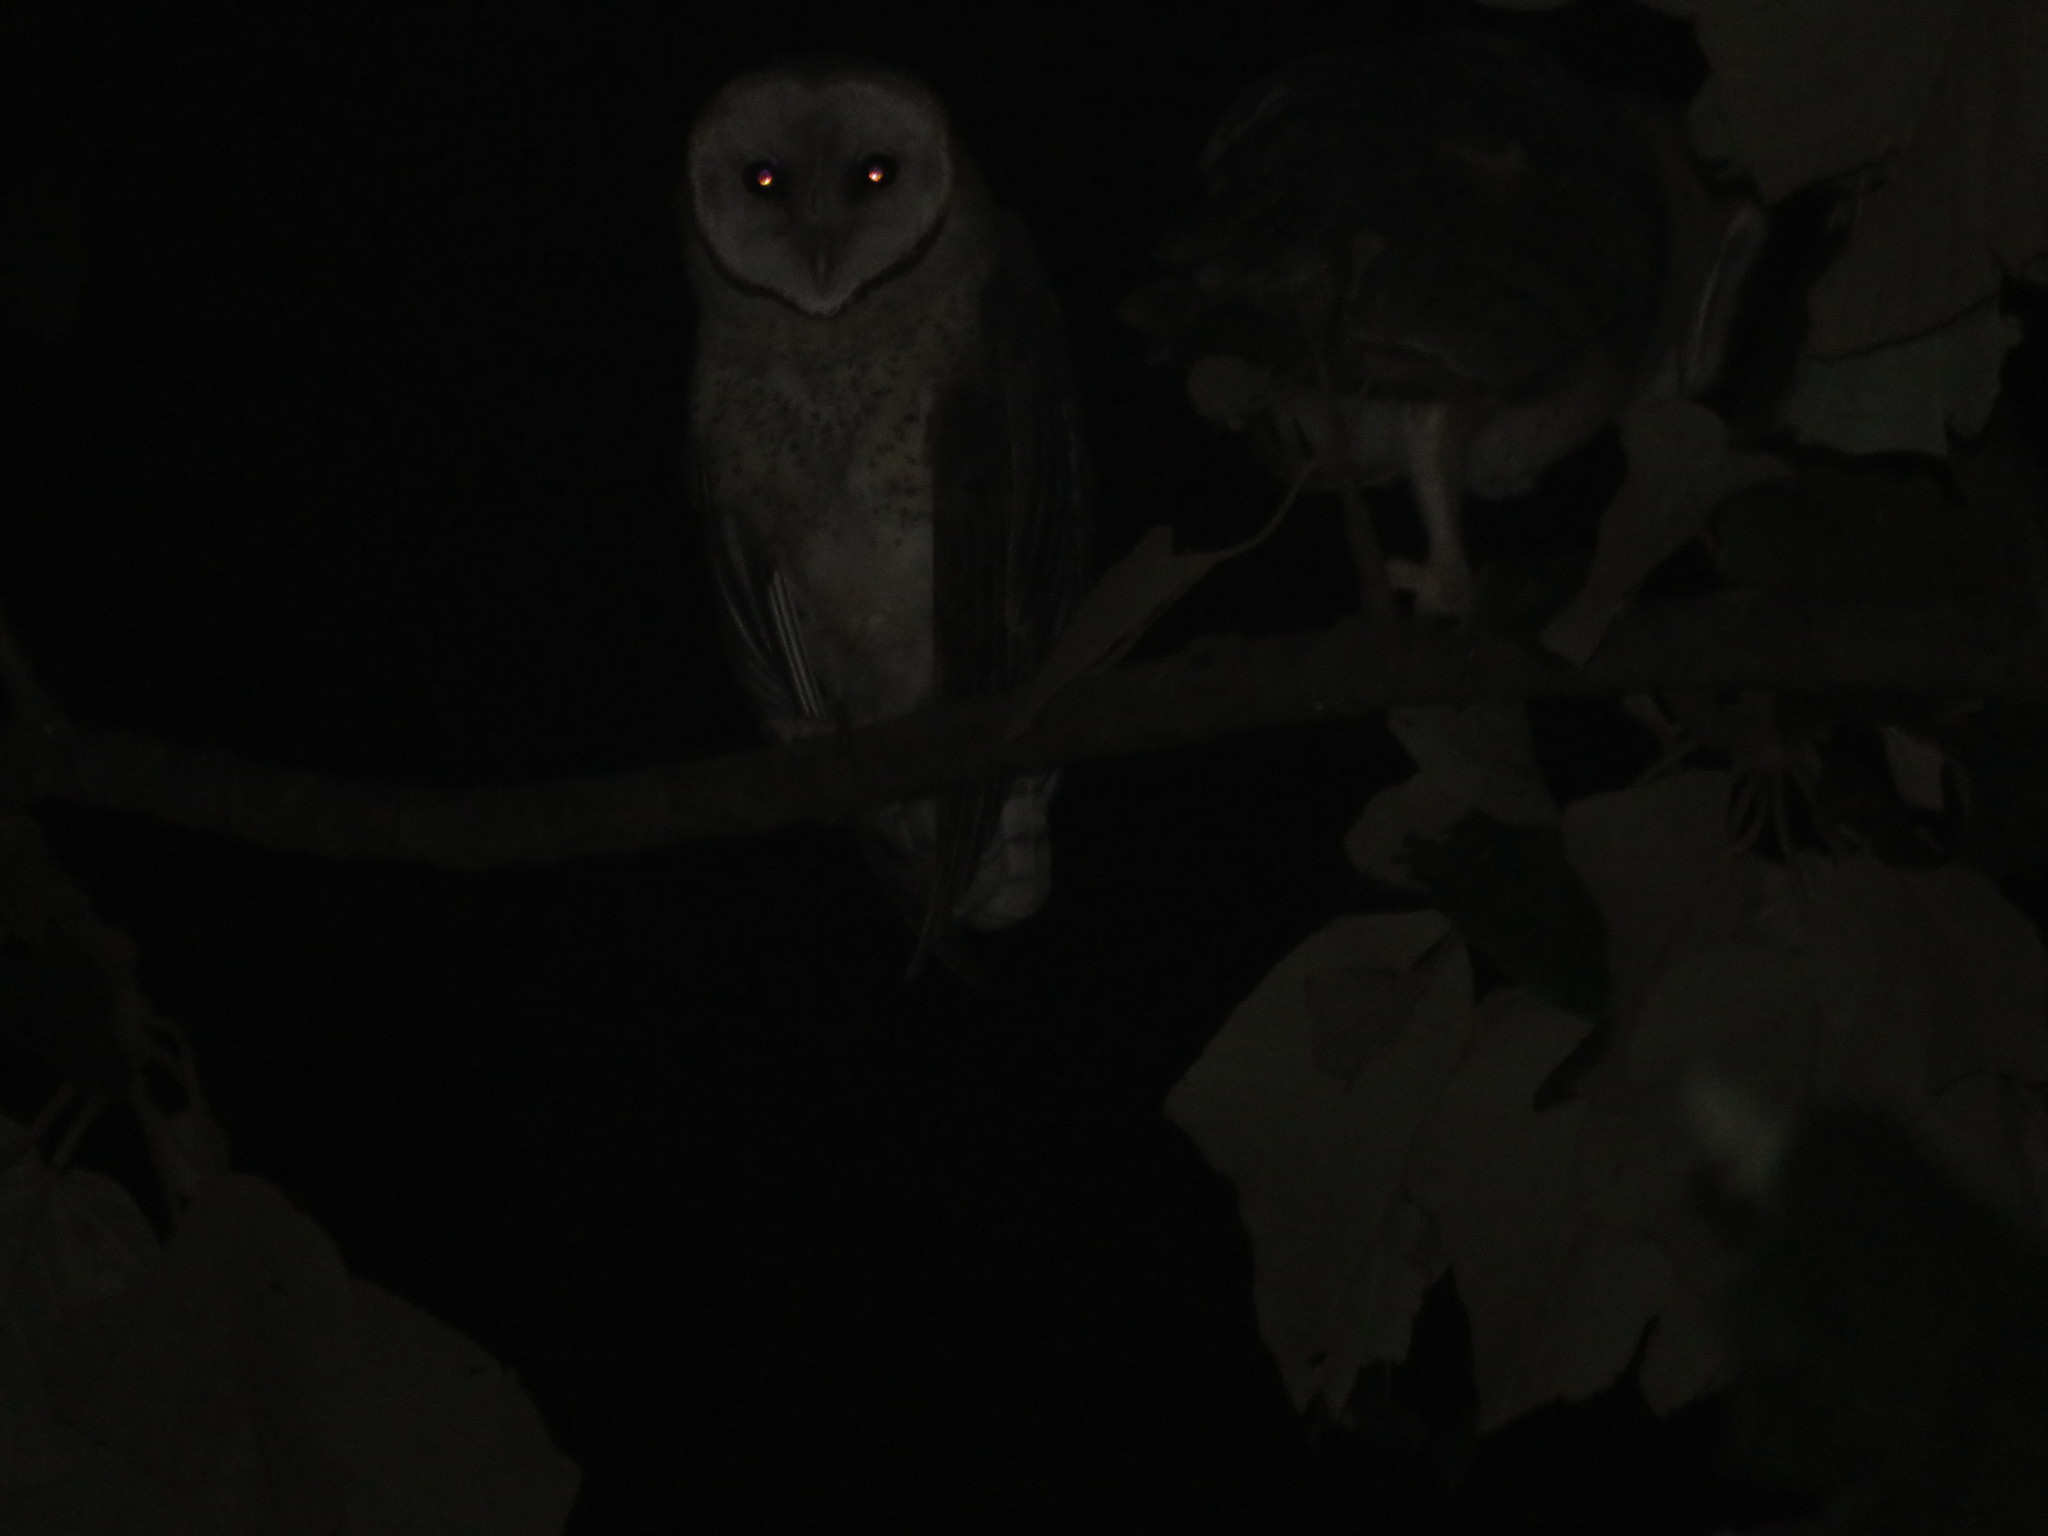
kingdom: Animalia
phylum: Chordata
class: Aves
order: Strigiformes
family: Tytonidae
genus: Tyto
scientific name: Tyto alba
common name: Barn owl
